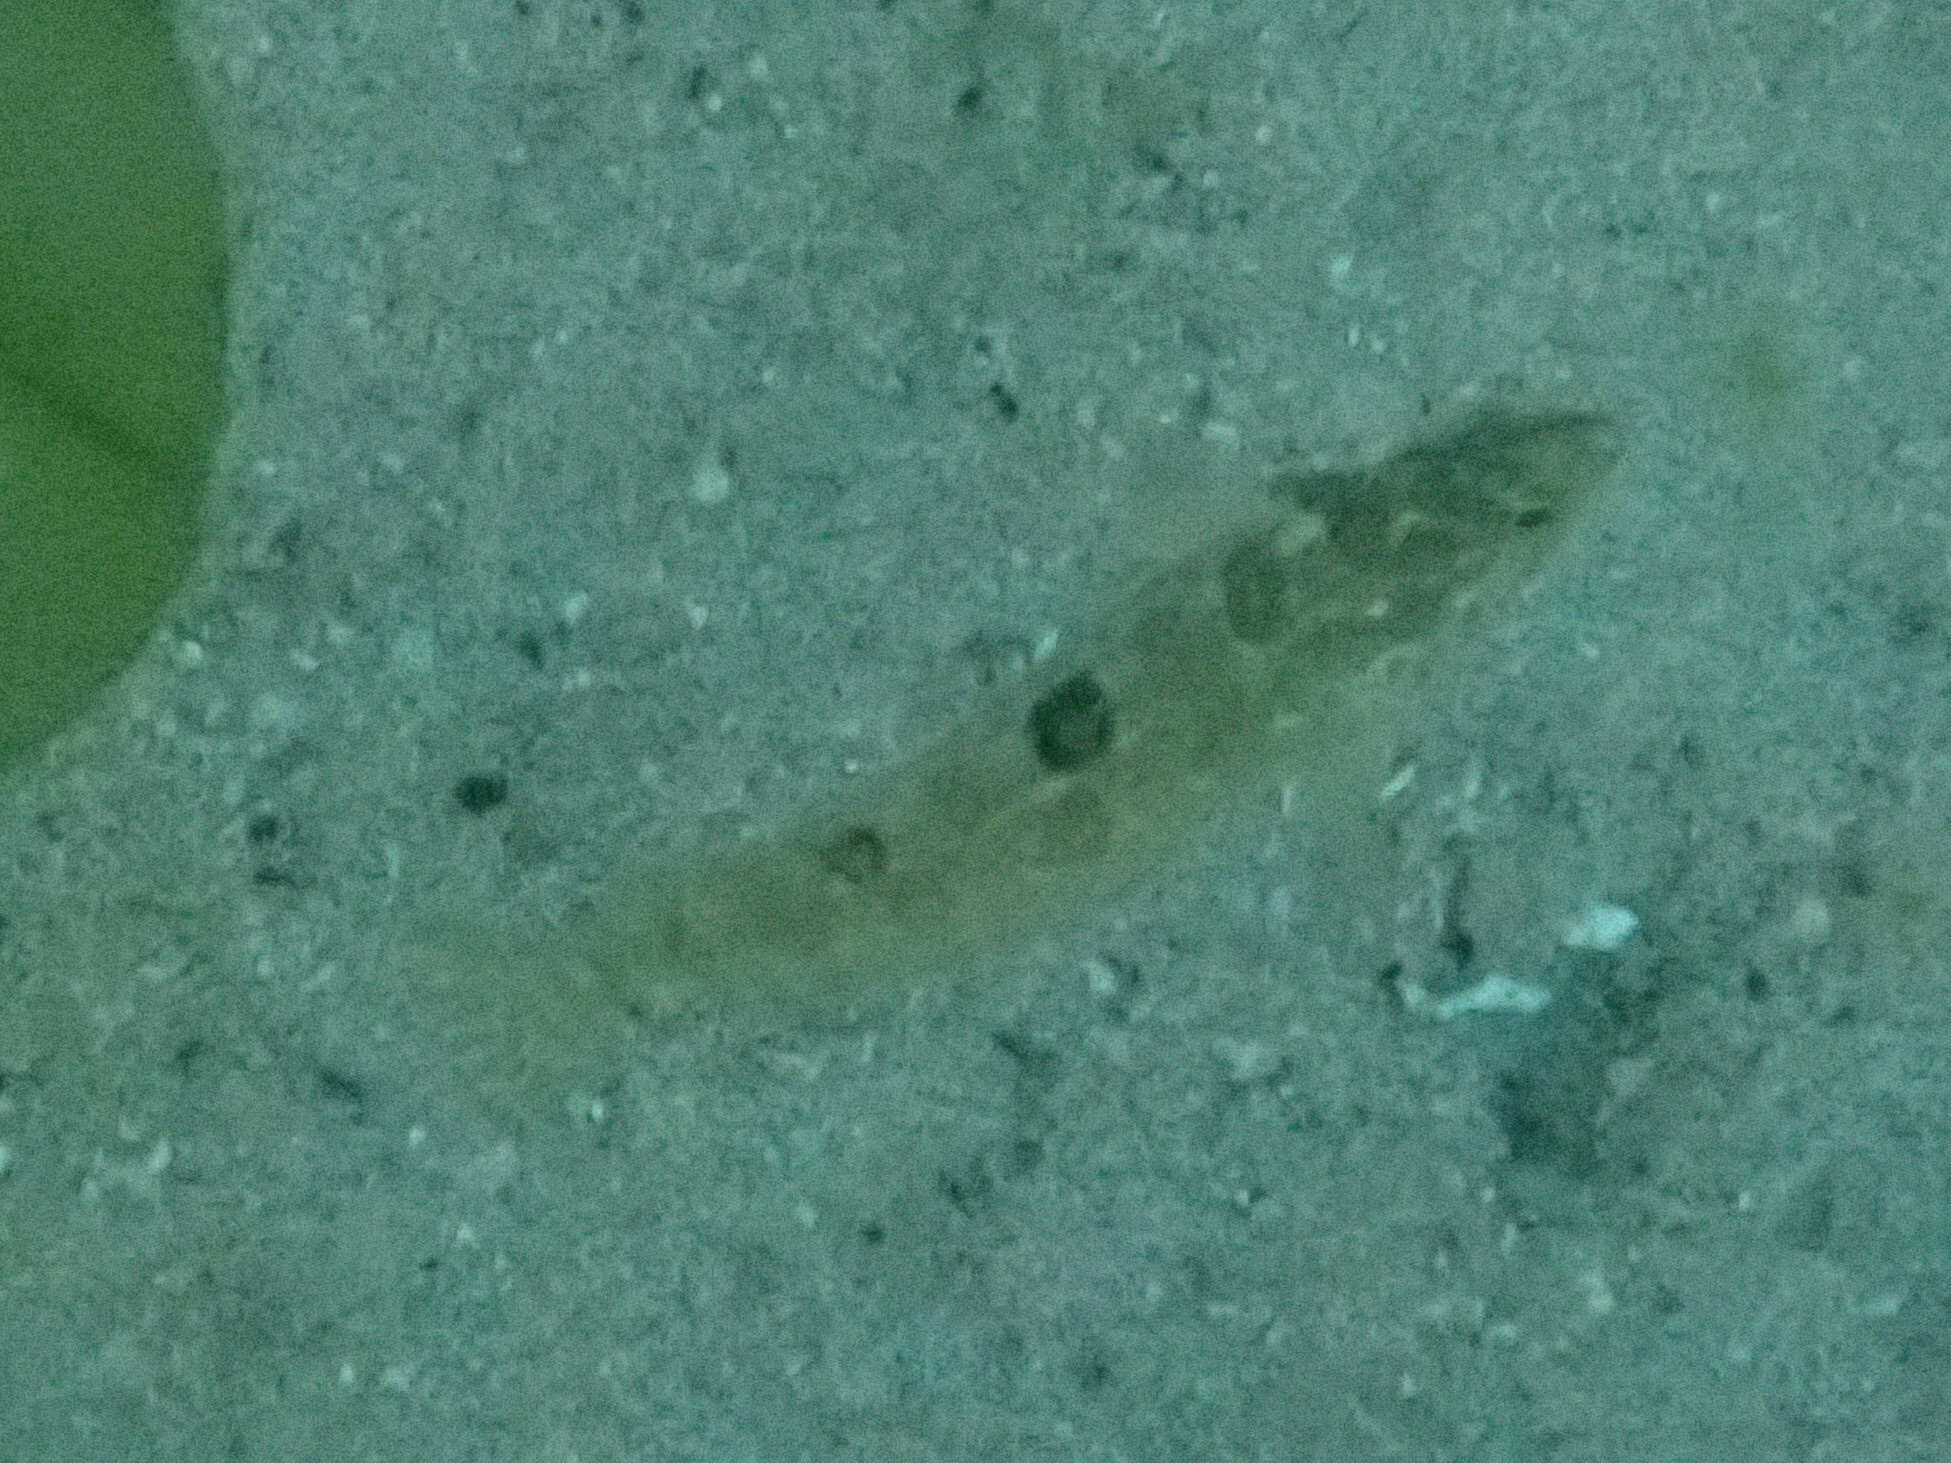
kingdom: Animalia
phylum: Chordata
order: Perciformes
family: Clinidae
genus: Clinus
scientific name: Clinus superciliosus
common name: Super klipfish
